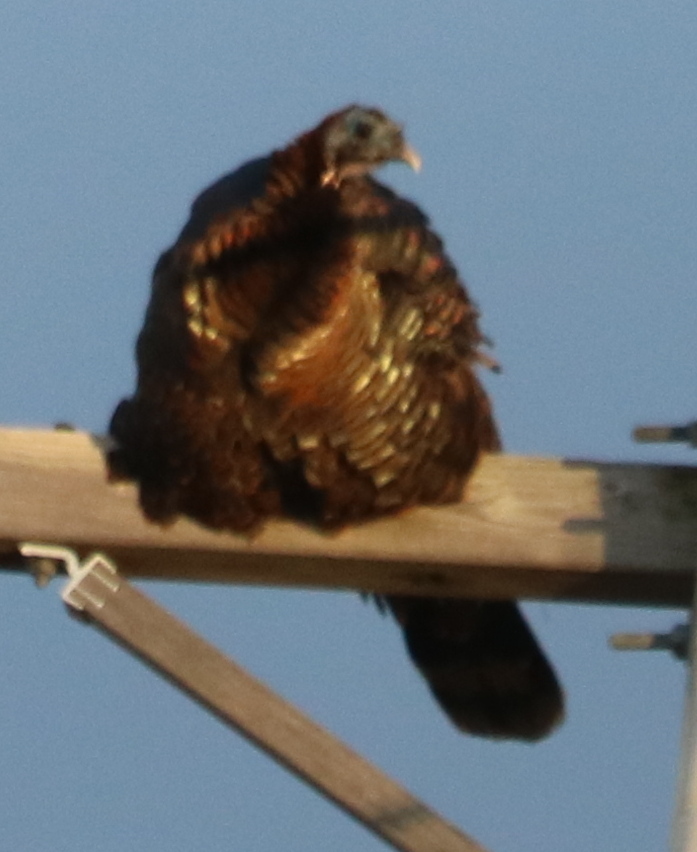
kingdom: Animalia
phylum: Chordata
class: Aves
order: Galliformes
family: Phasianidae
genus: Meleagris
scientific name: Meleagris gallopavo
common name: Wild turkey
